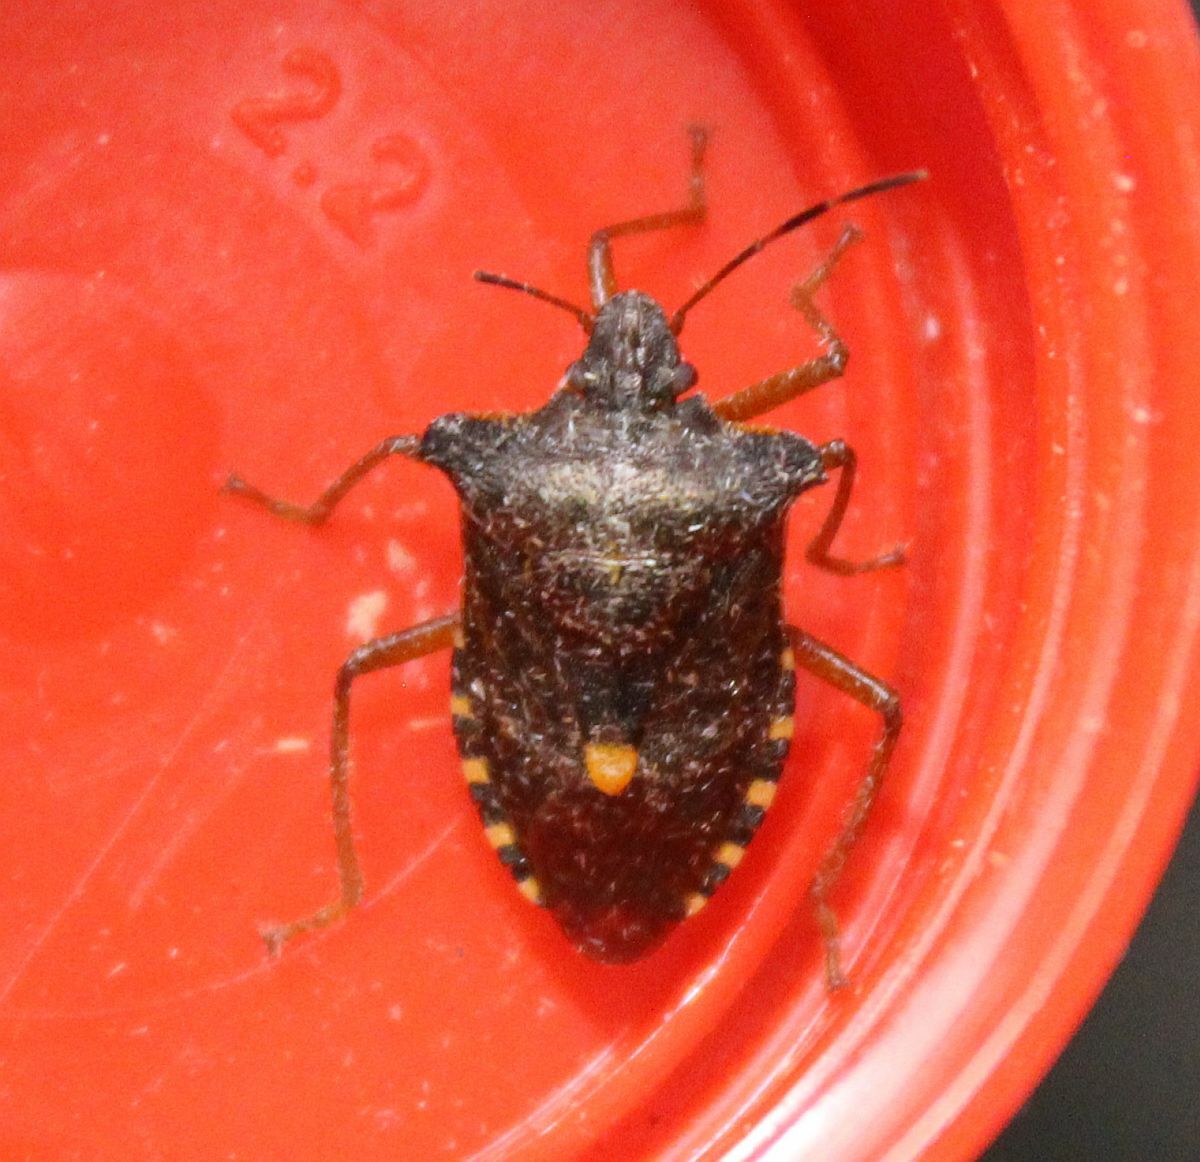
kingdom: Animalia
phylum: Arthropoda
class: Insecta
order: Hemiptera
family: Pentatomidae
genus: Pentatoma
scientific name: Pentatoma rufipes
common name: Forest bug
